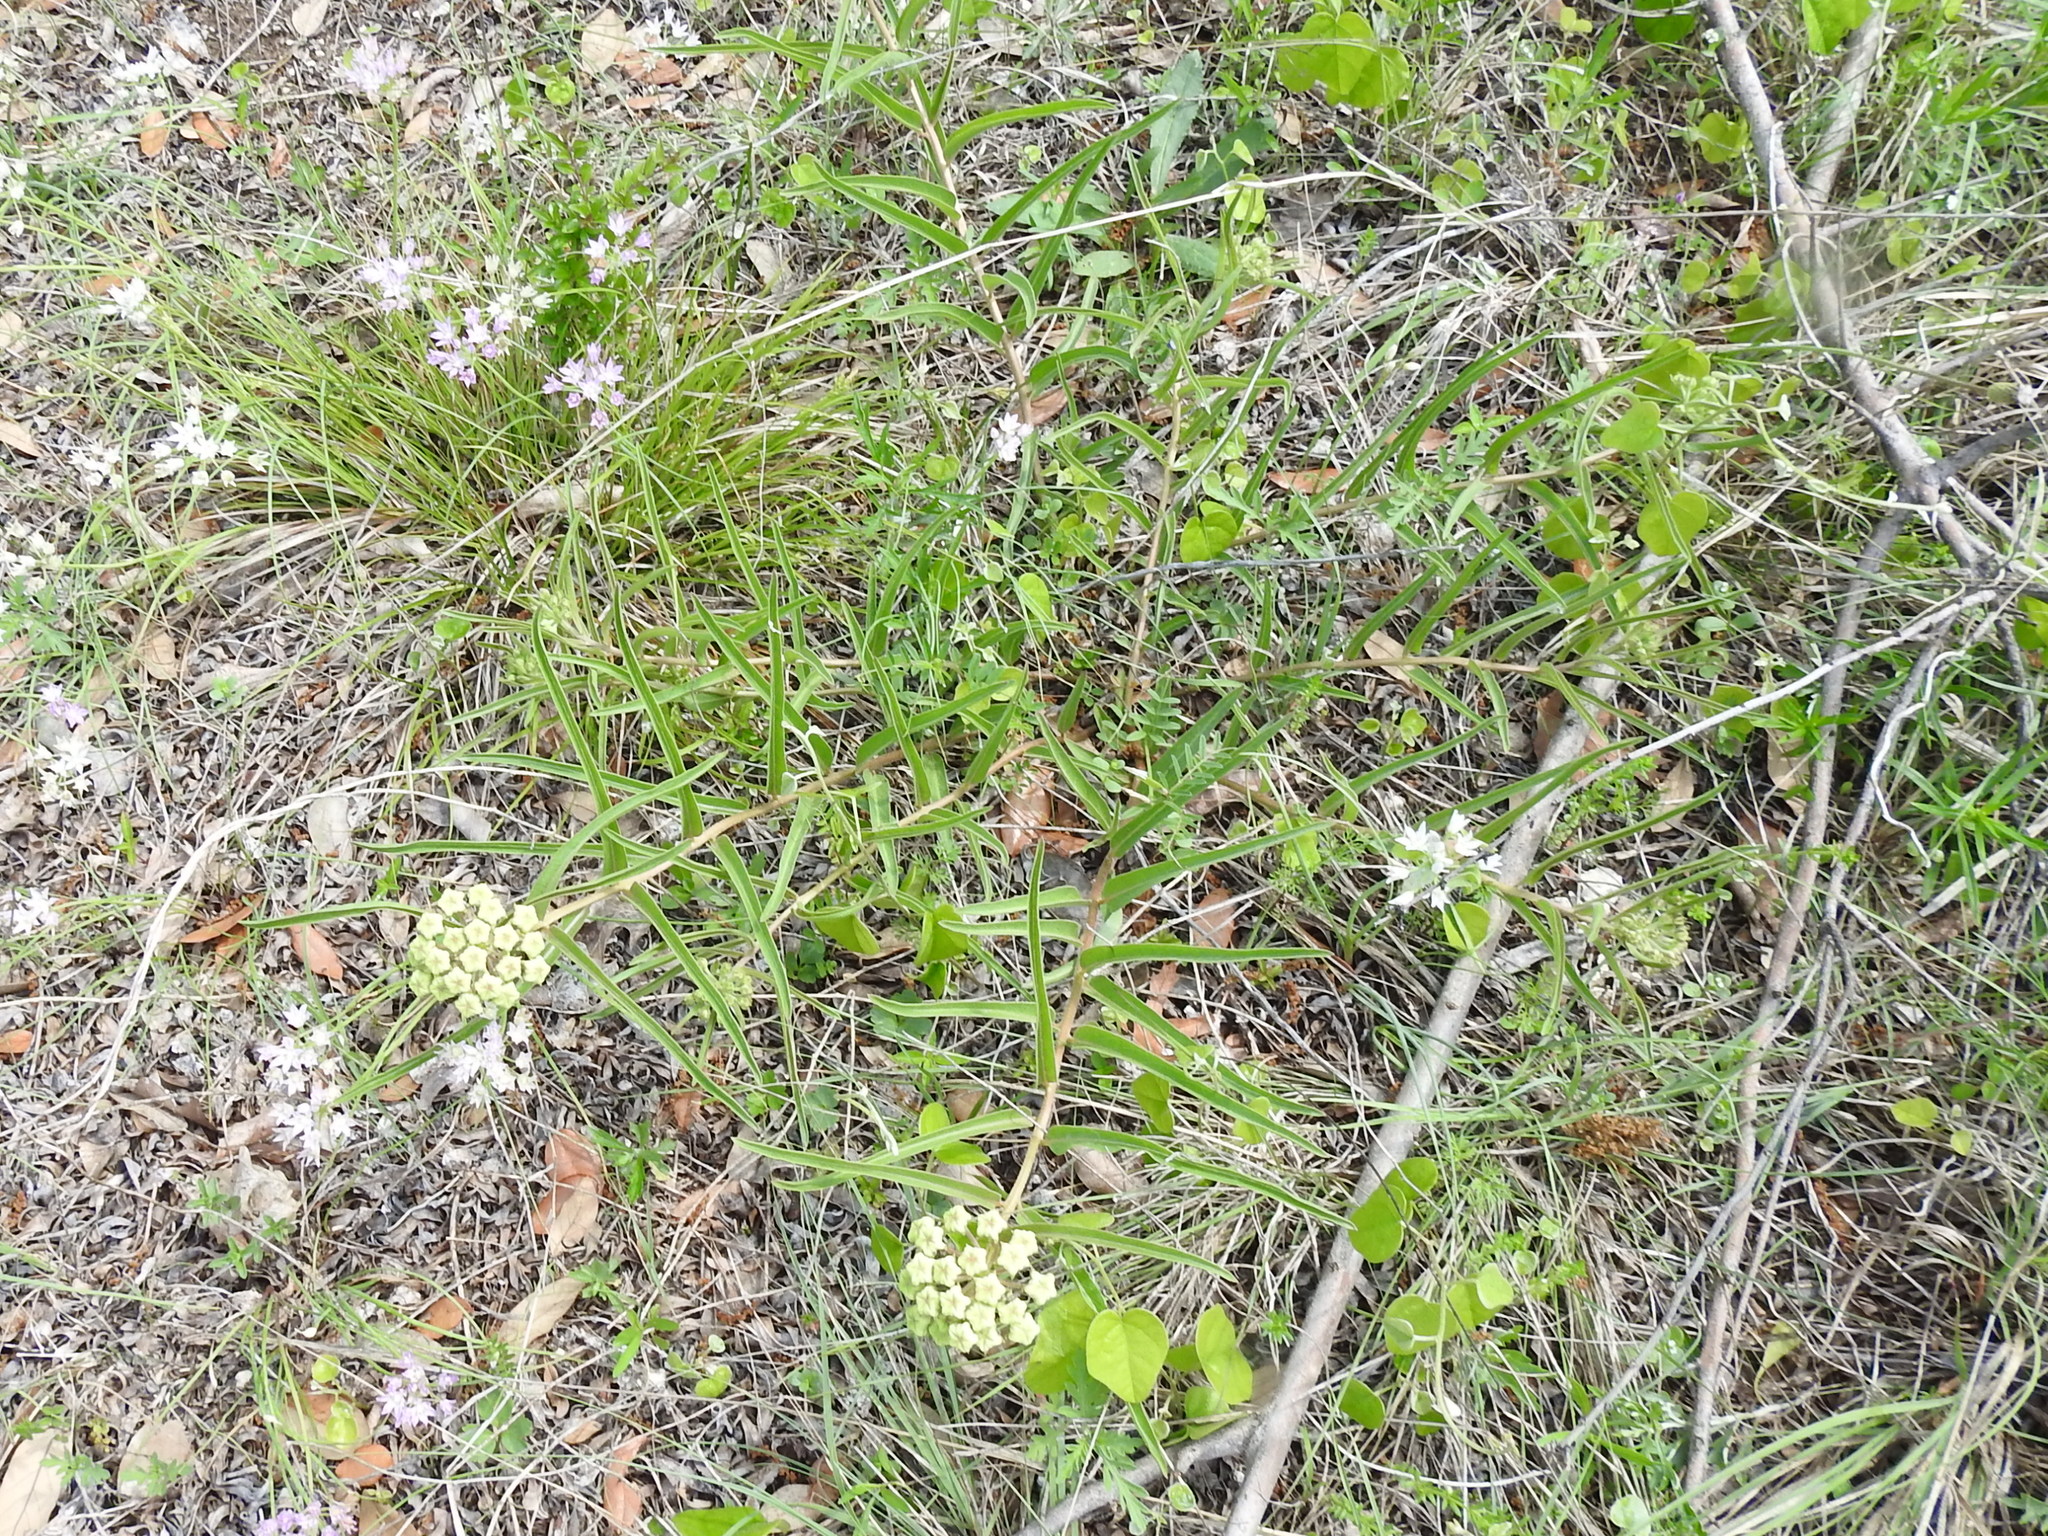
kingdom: Plantae
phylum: Tracheophyta
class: Magnoliopsida
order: Gentianales
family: Apocynaceae
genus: Asclepias
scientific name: Asclepias asperula
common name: Antelope horns
